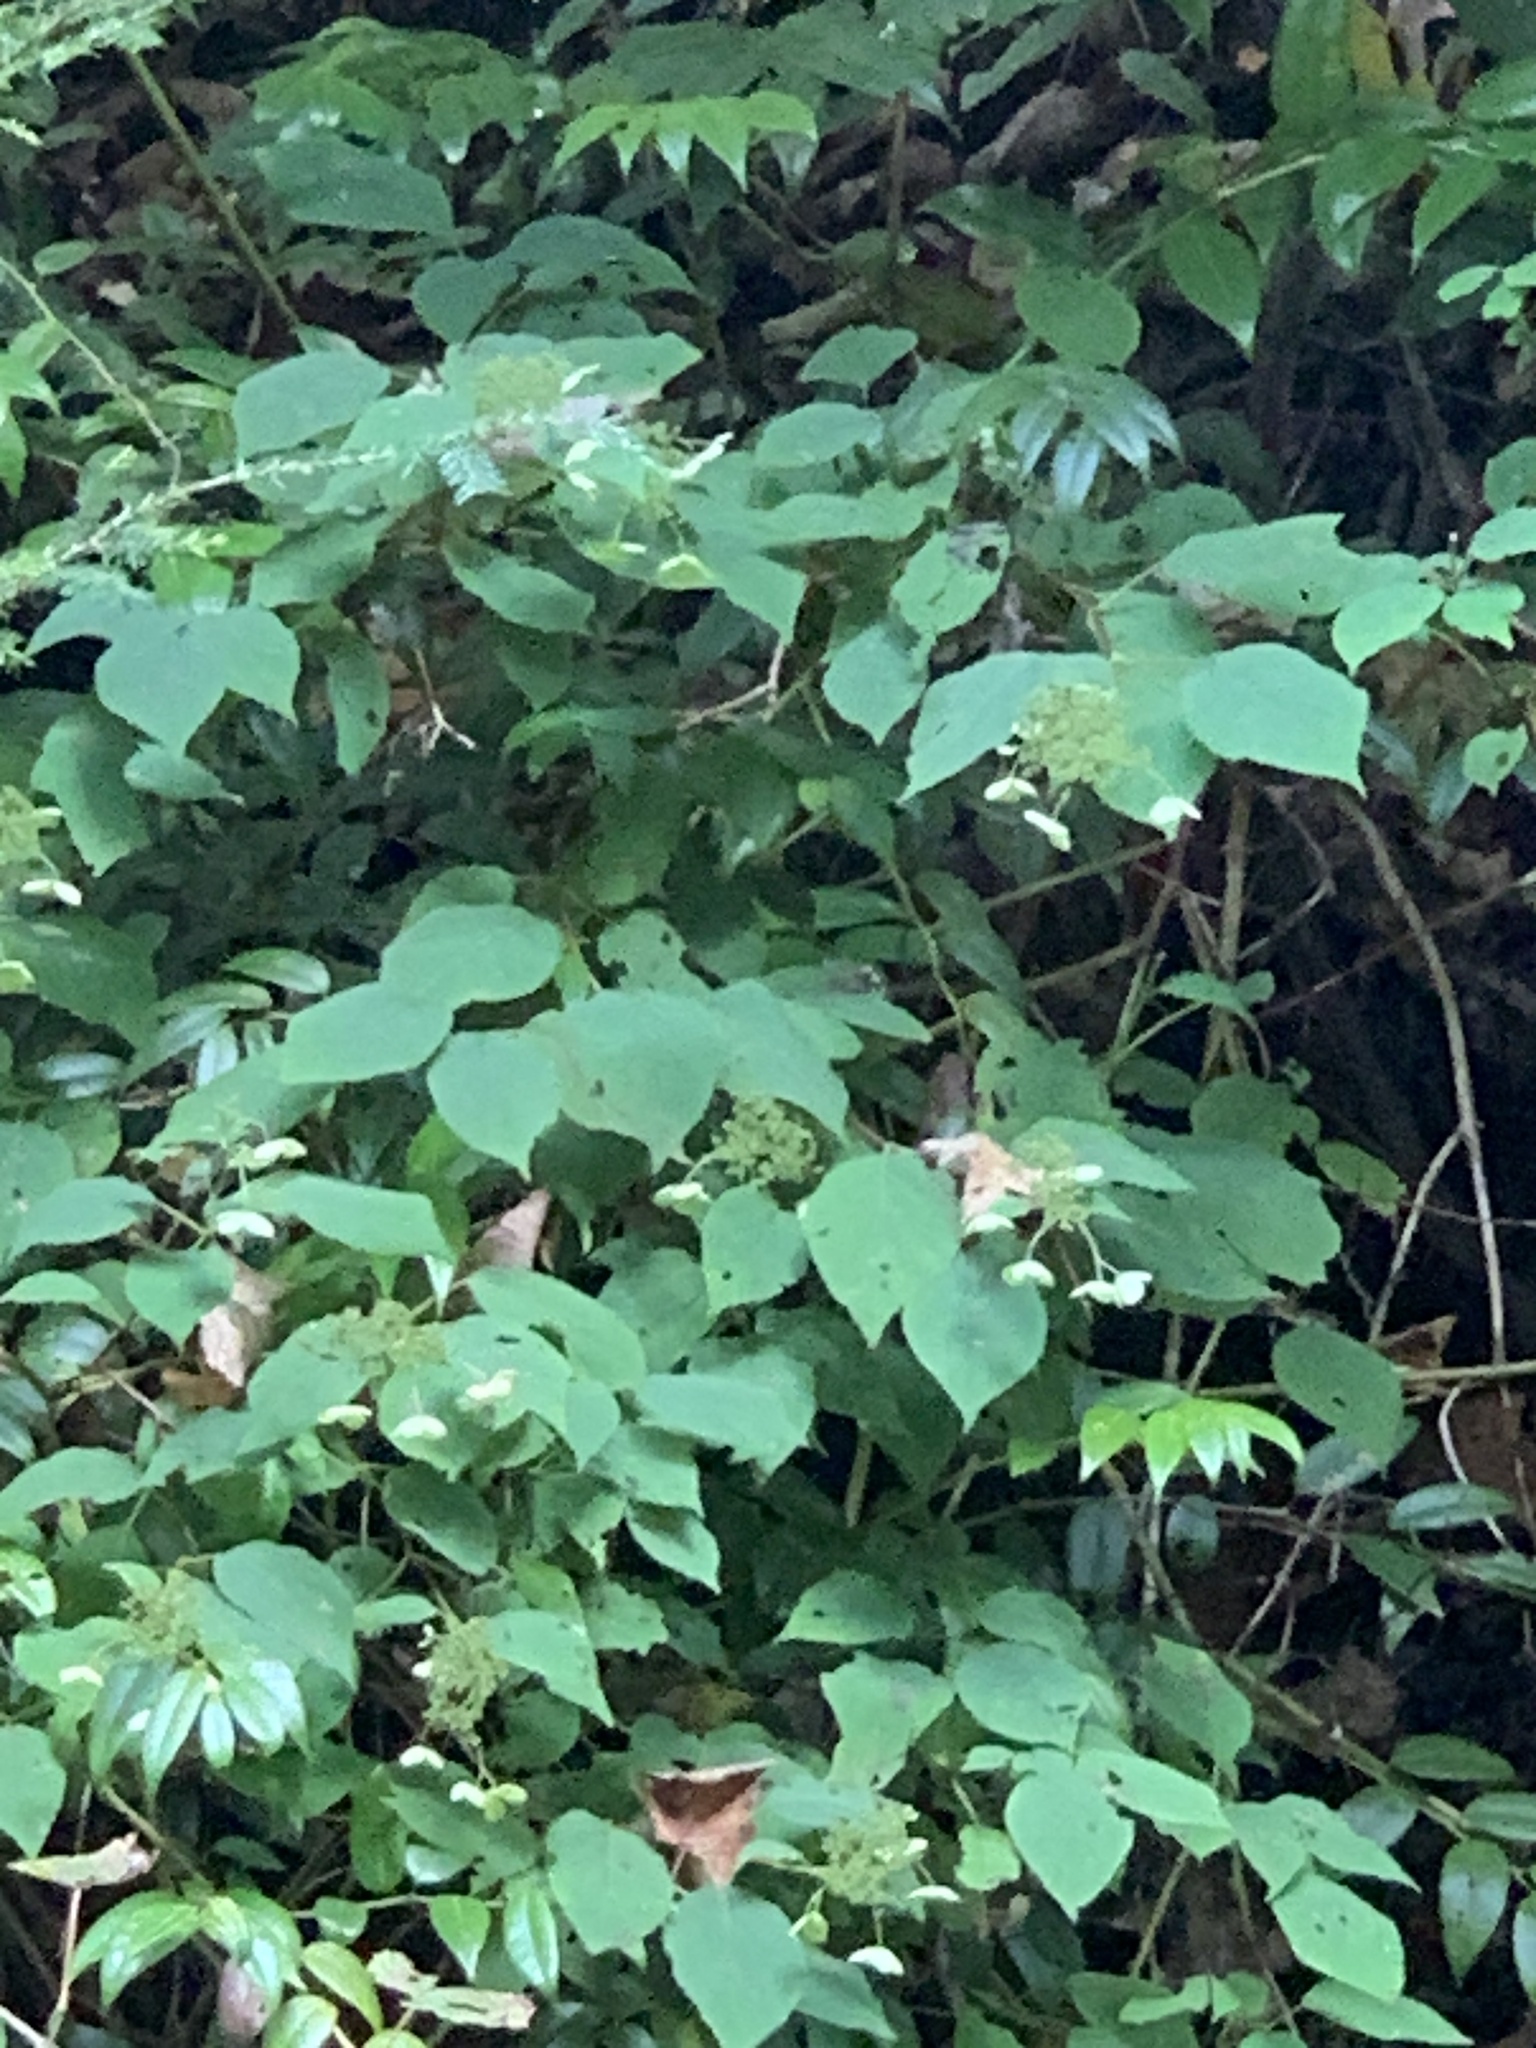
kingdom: Plantae
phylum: Tracheophyta
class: Magnoliopsida
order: Cornales
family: Hydrangeaceae
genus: Hydrangea
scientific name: Hydrangea arborescens
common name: Sevenbark
